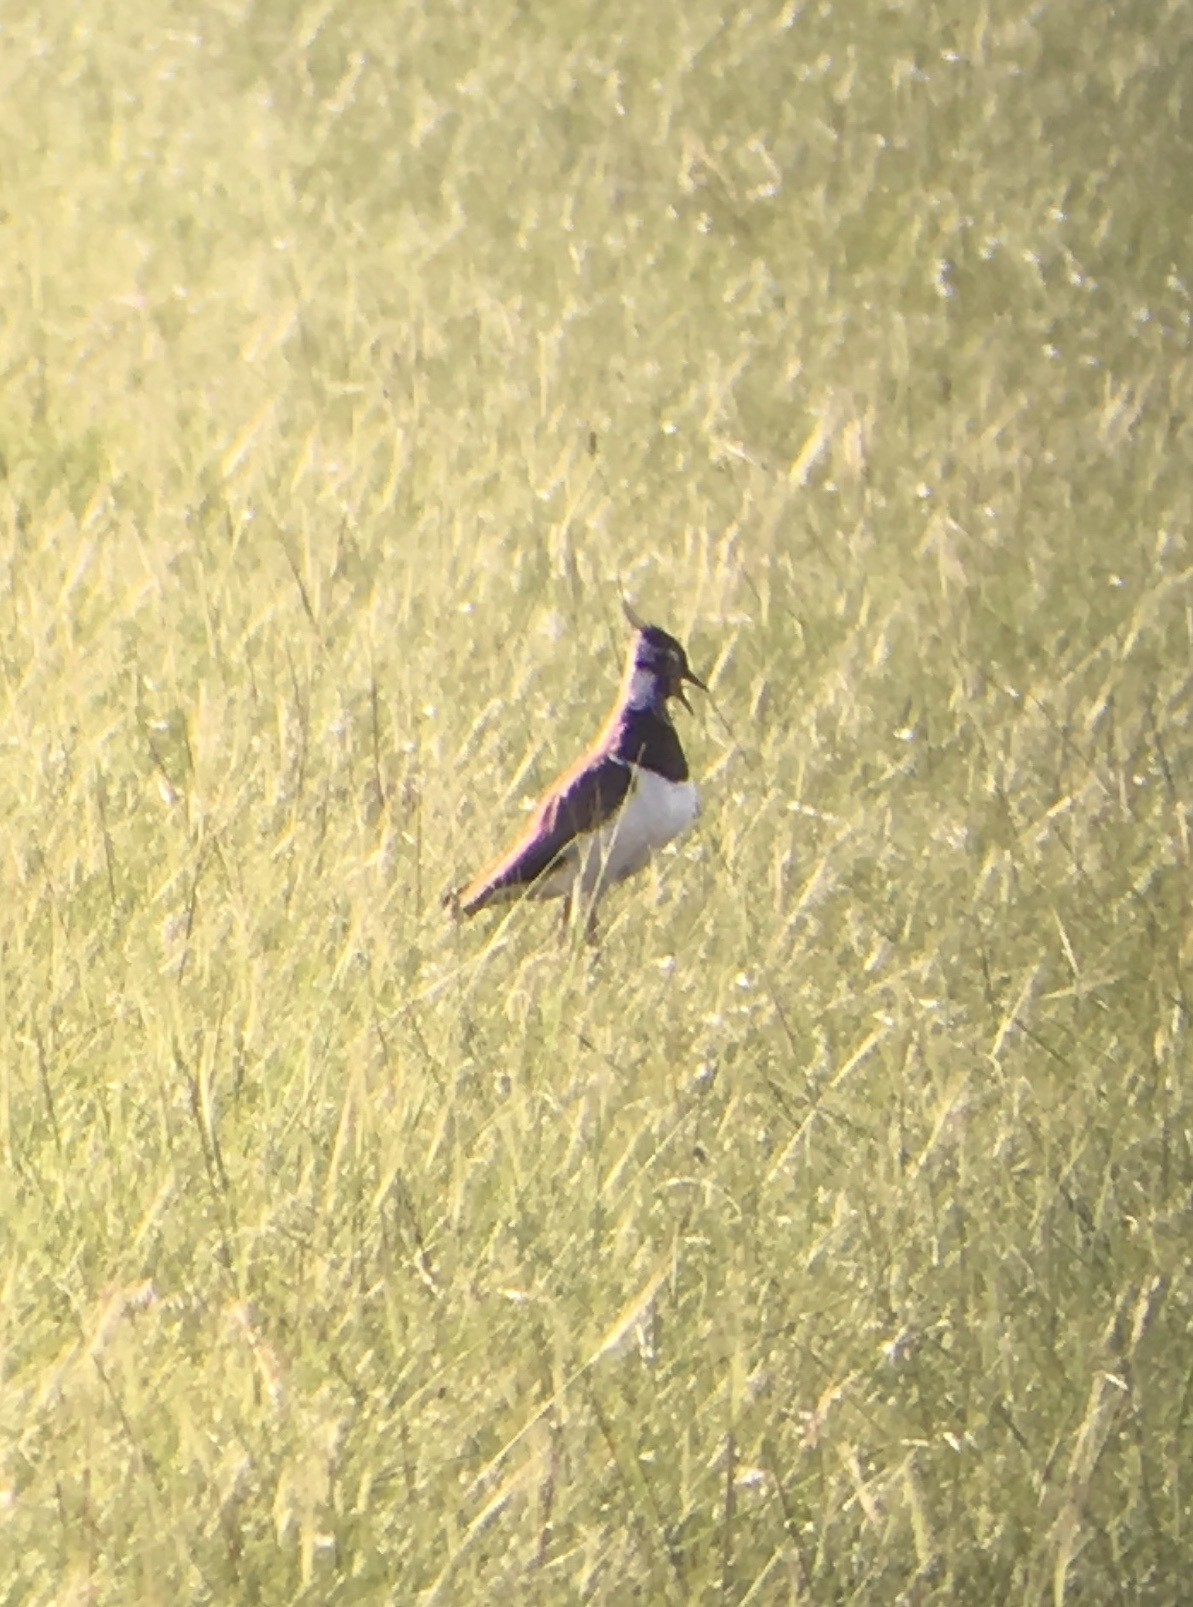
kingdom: Animalia
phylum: Chordata
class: Aves
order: Charadriiformes
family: Charadriidae
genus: Vanellus
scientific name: Vanellus vanellus
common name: Northern lapwing
